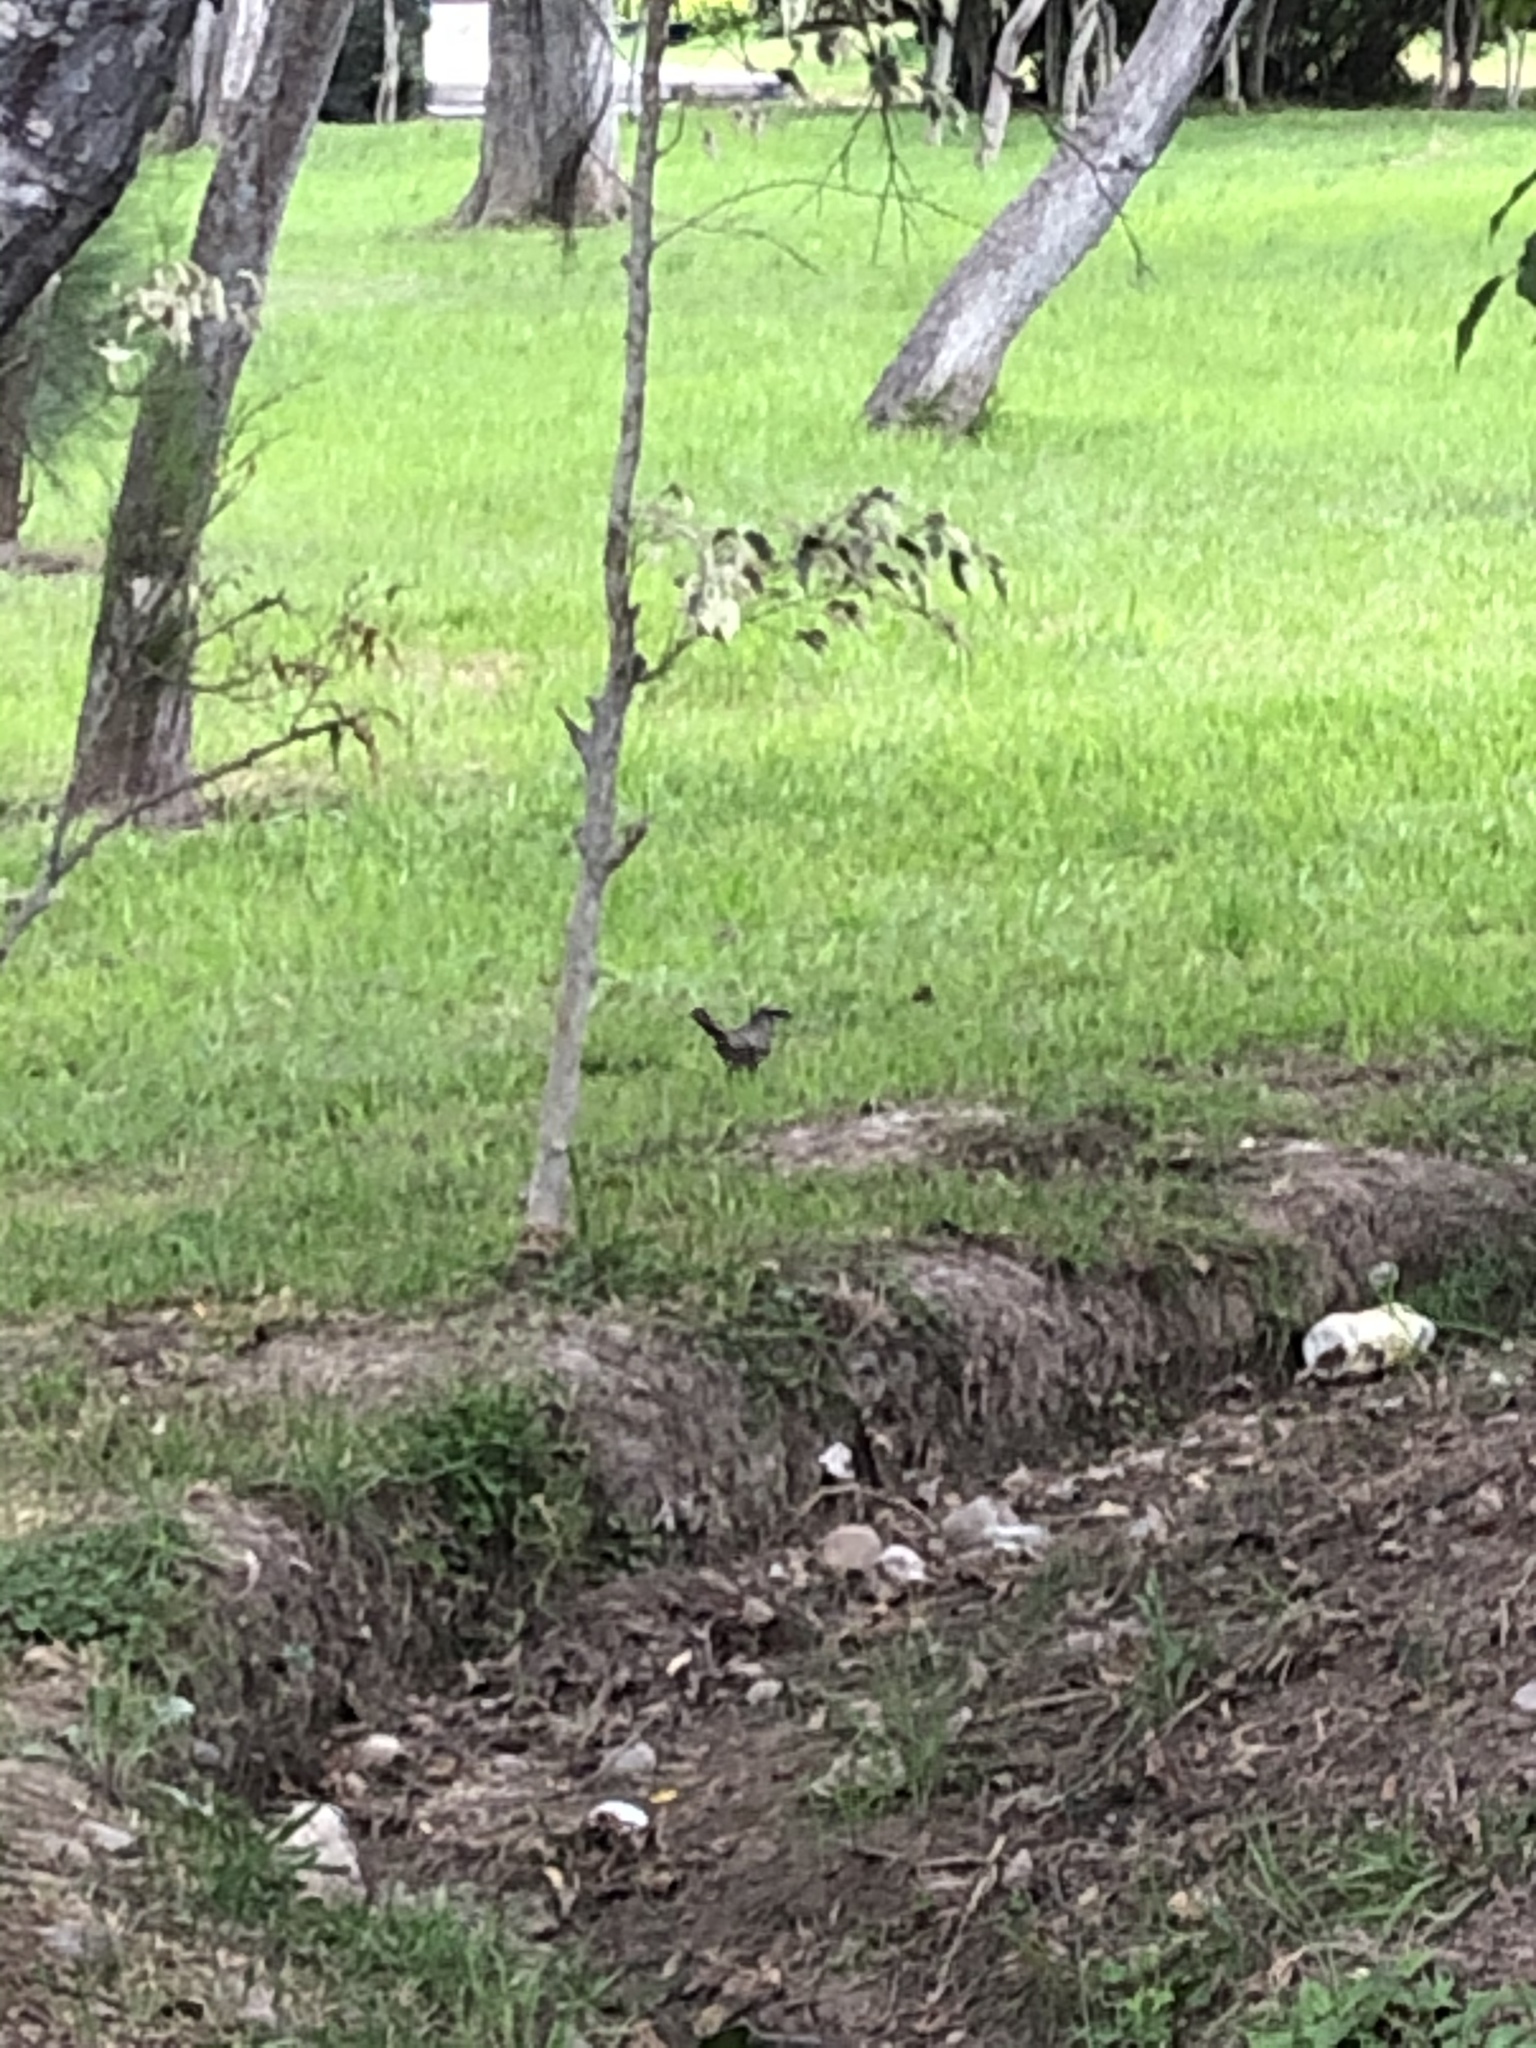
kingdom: Animalia
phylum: Chordata
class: Aves
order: Passeriformes
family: Mimidae
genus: Mimus
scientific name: Mimus longicaudatus
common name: Long-tailed mockingbird
